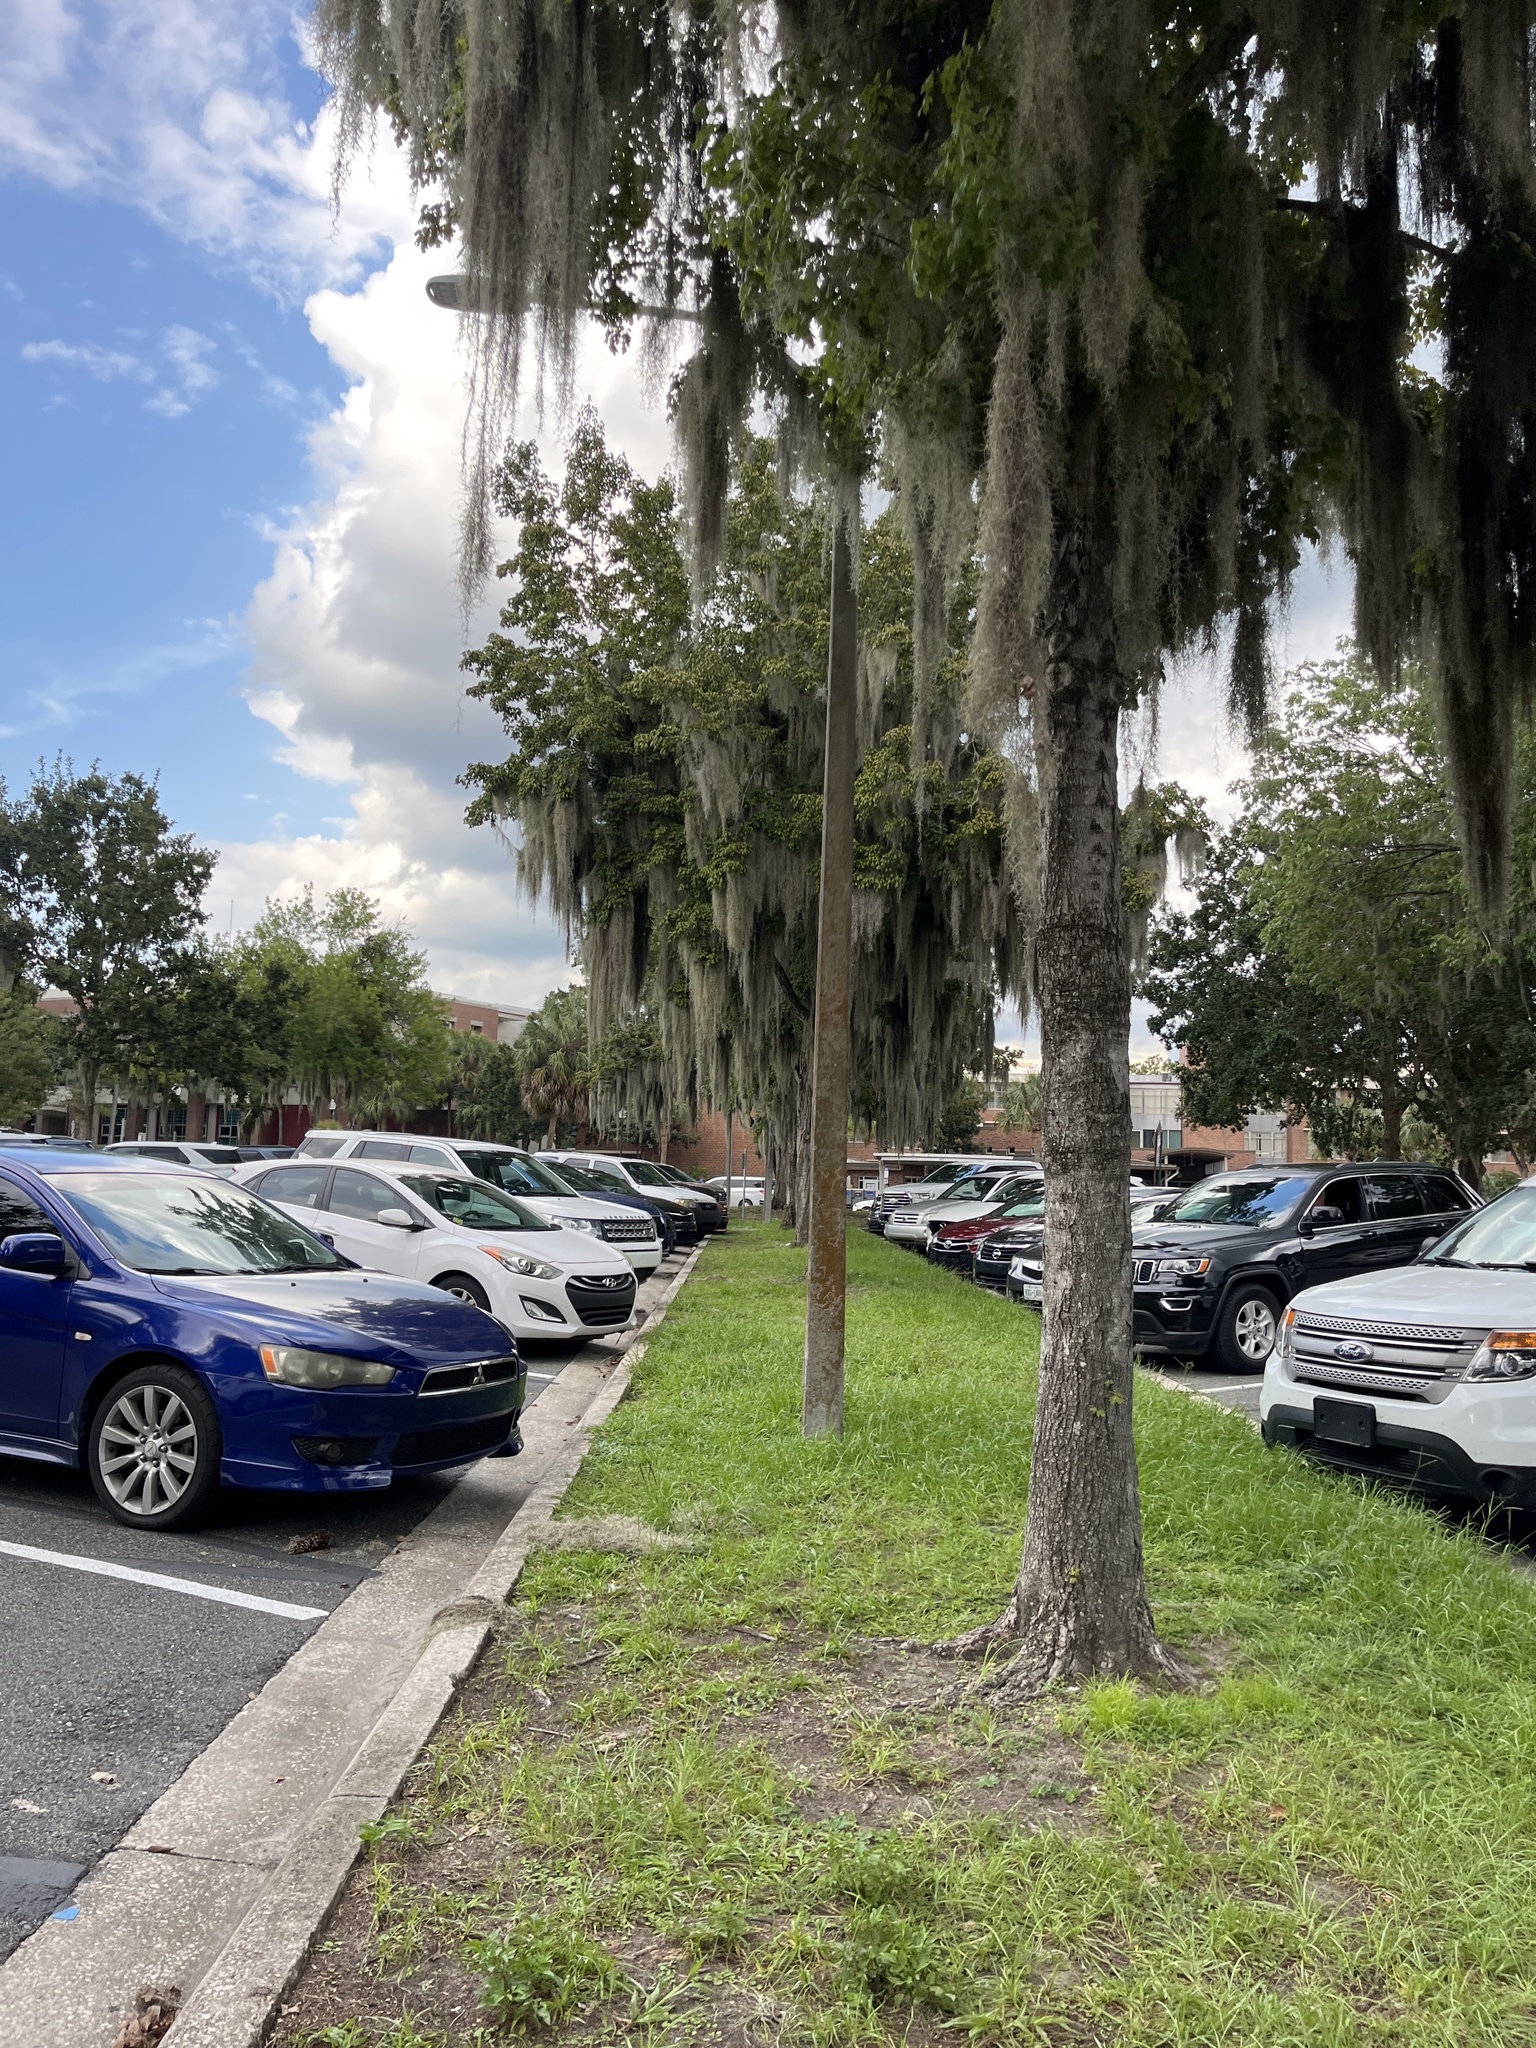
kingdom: Plantae
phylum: Tracheophyta
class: Liliopsida
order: Poales
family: Bromeliaceae
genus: Tillandsia
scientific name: Tillandsia usneoides
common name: Spanish moss
